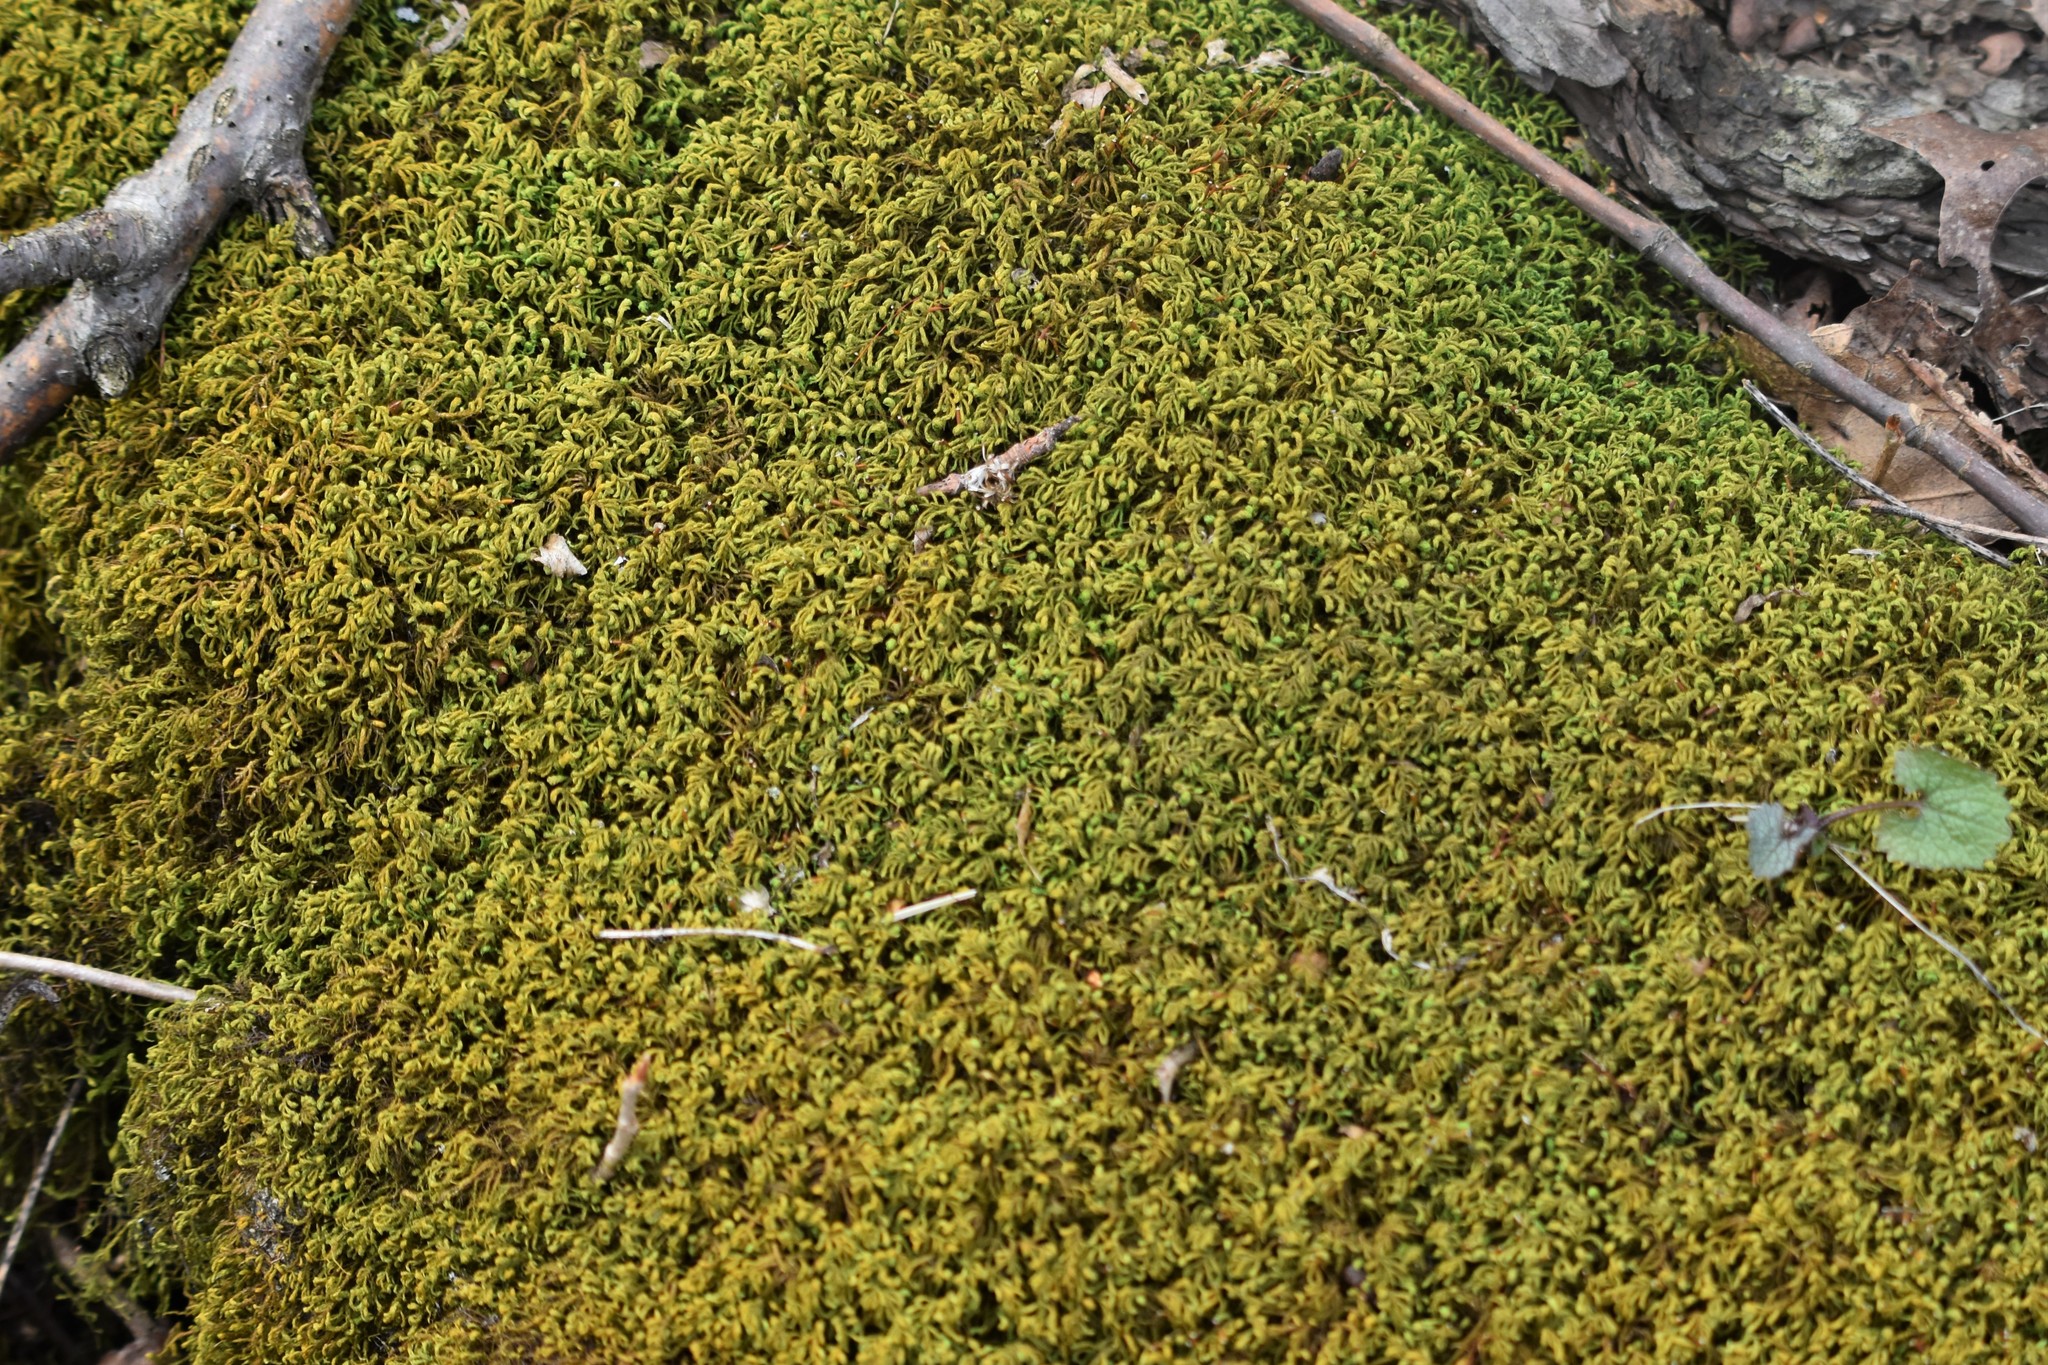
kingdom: Plantae
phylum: Bryophyta
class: Bryopsida
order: Hypnales
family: Neckeraceae
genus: Pseudanomodon
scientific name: Pseudanomodon attenuatus
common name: Tree-skirt moss
